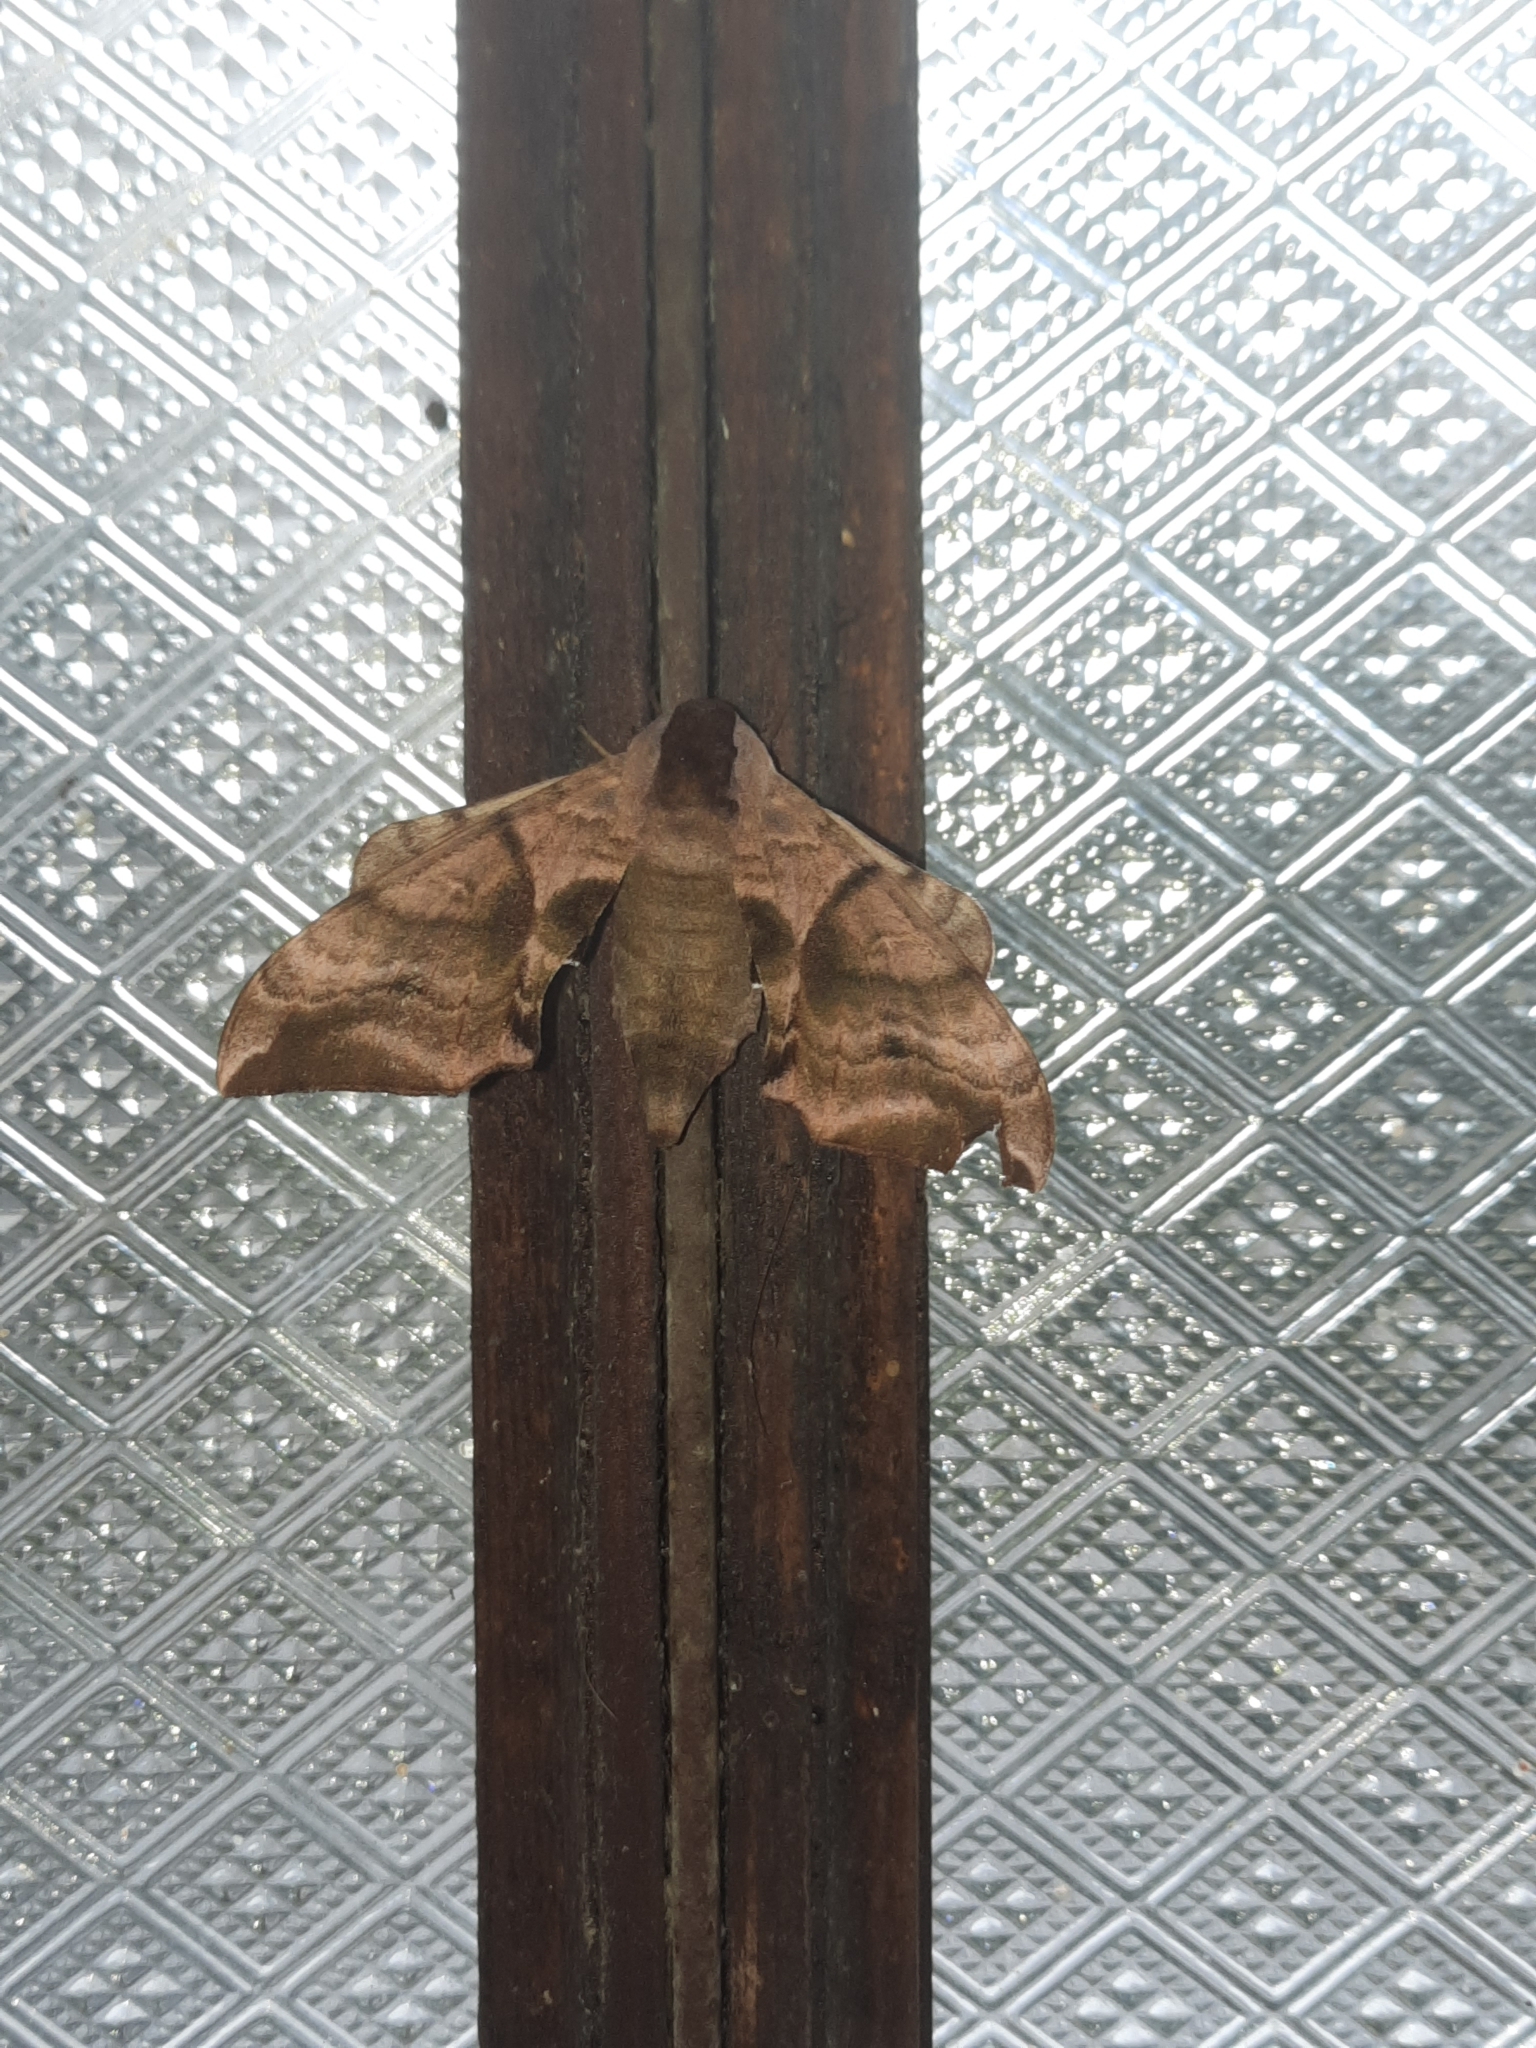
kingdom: Animalia
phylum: Arthropoda
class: Insecta
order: Lepidoptera
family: Sphingidae
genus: Smerinthus
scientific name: Smerinthus ocellata
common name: Eyed hawk-moth
